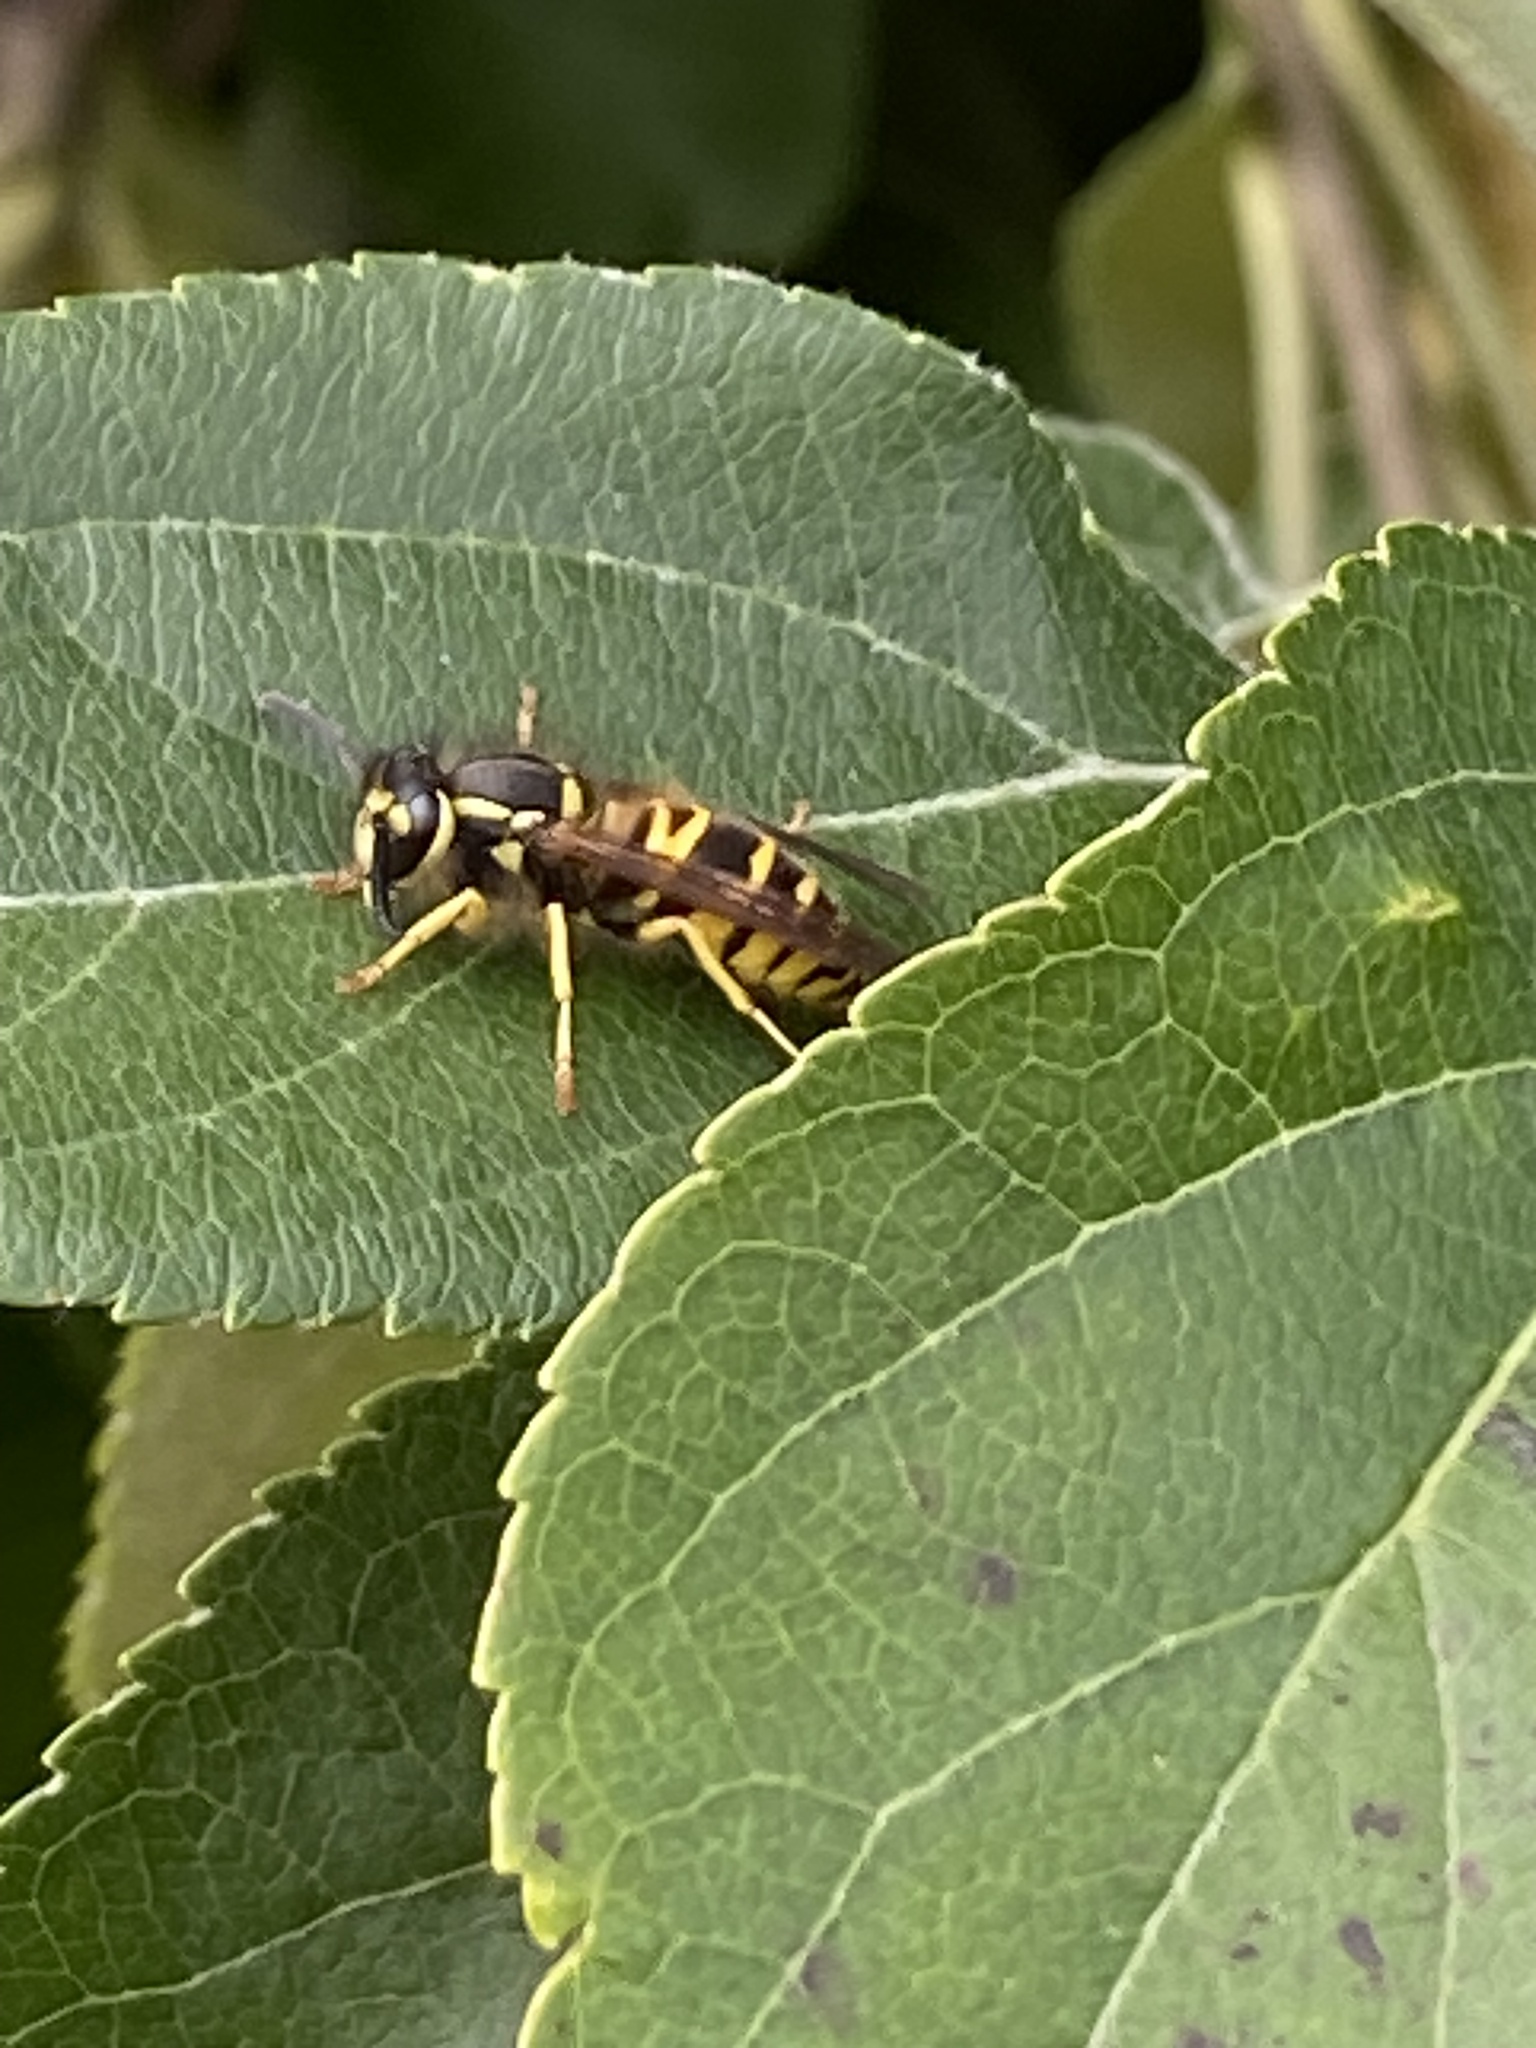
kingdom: Animalia
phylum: Arthropoda
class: Insecta
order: Hymenoptera
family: Vespidae
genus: Vespula
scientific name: Vespula maculifrons
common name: Eastern yellowjacket
